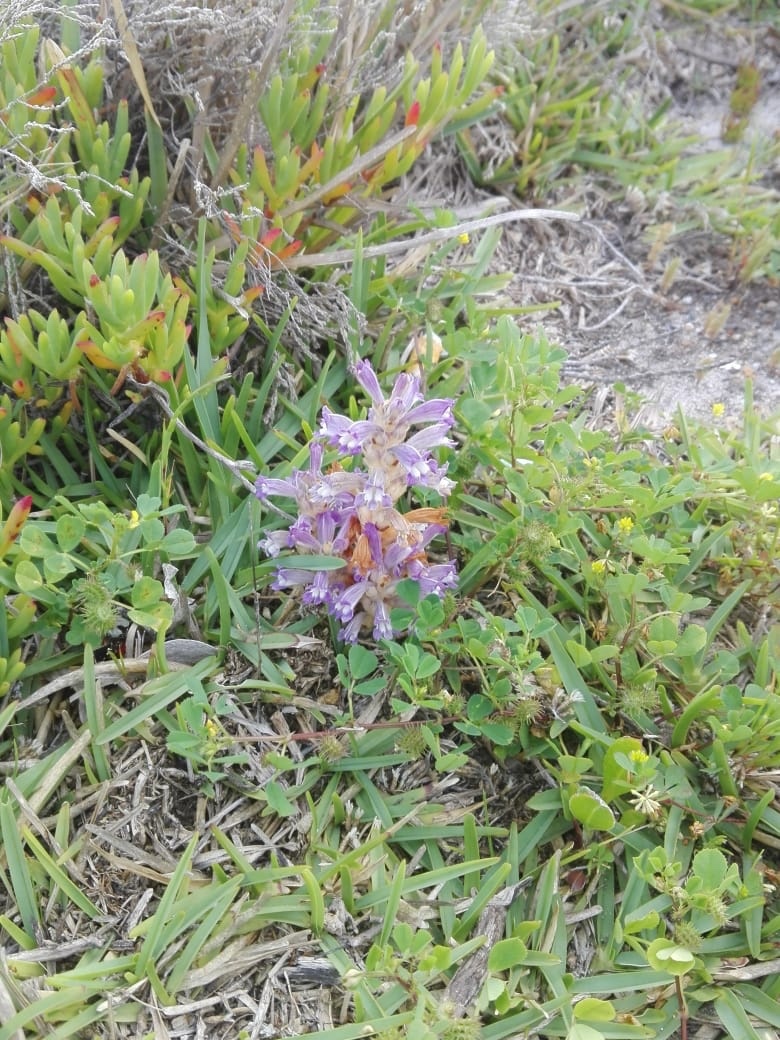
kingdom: Plantae
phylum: Tracheophyta
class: Magnoliopsida
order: Lamiales
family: Orobanchaceae
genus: Phelipanche
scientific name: Phelipanche mutelii
